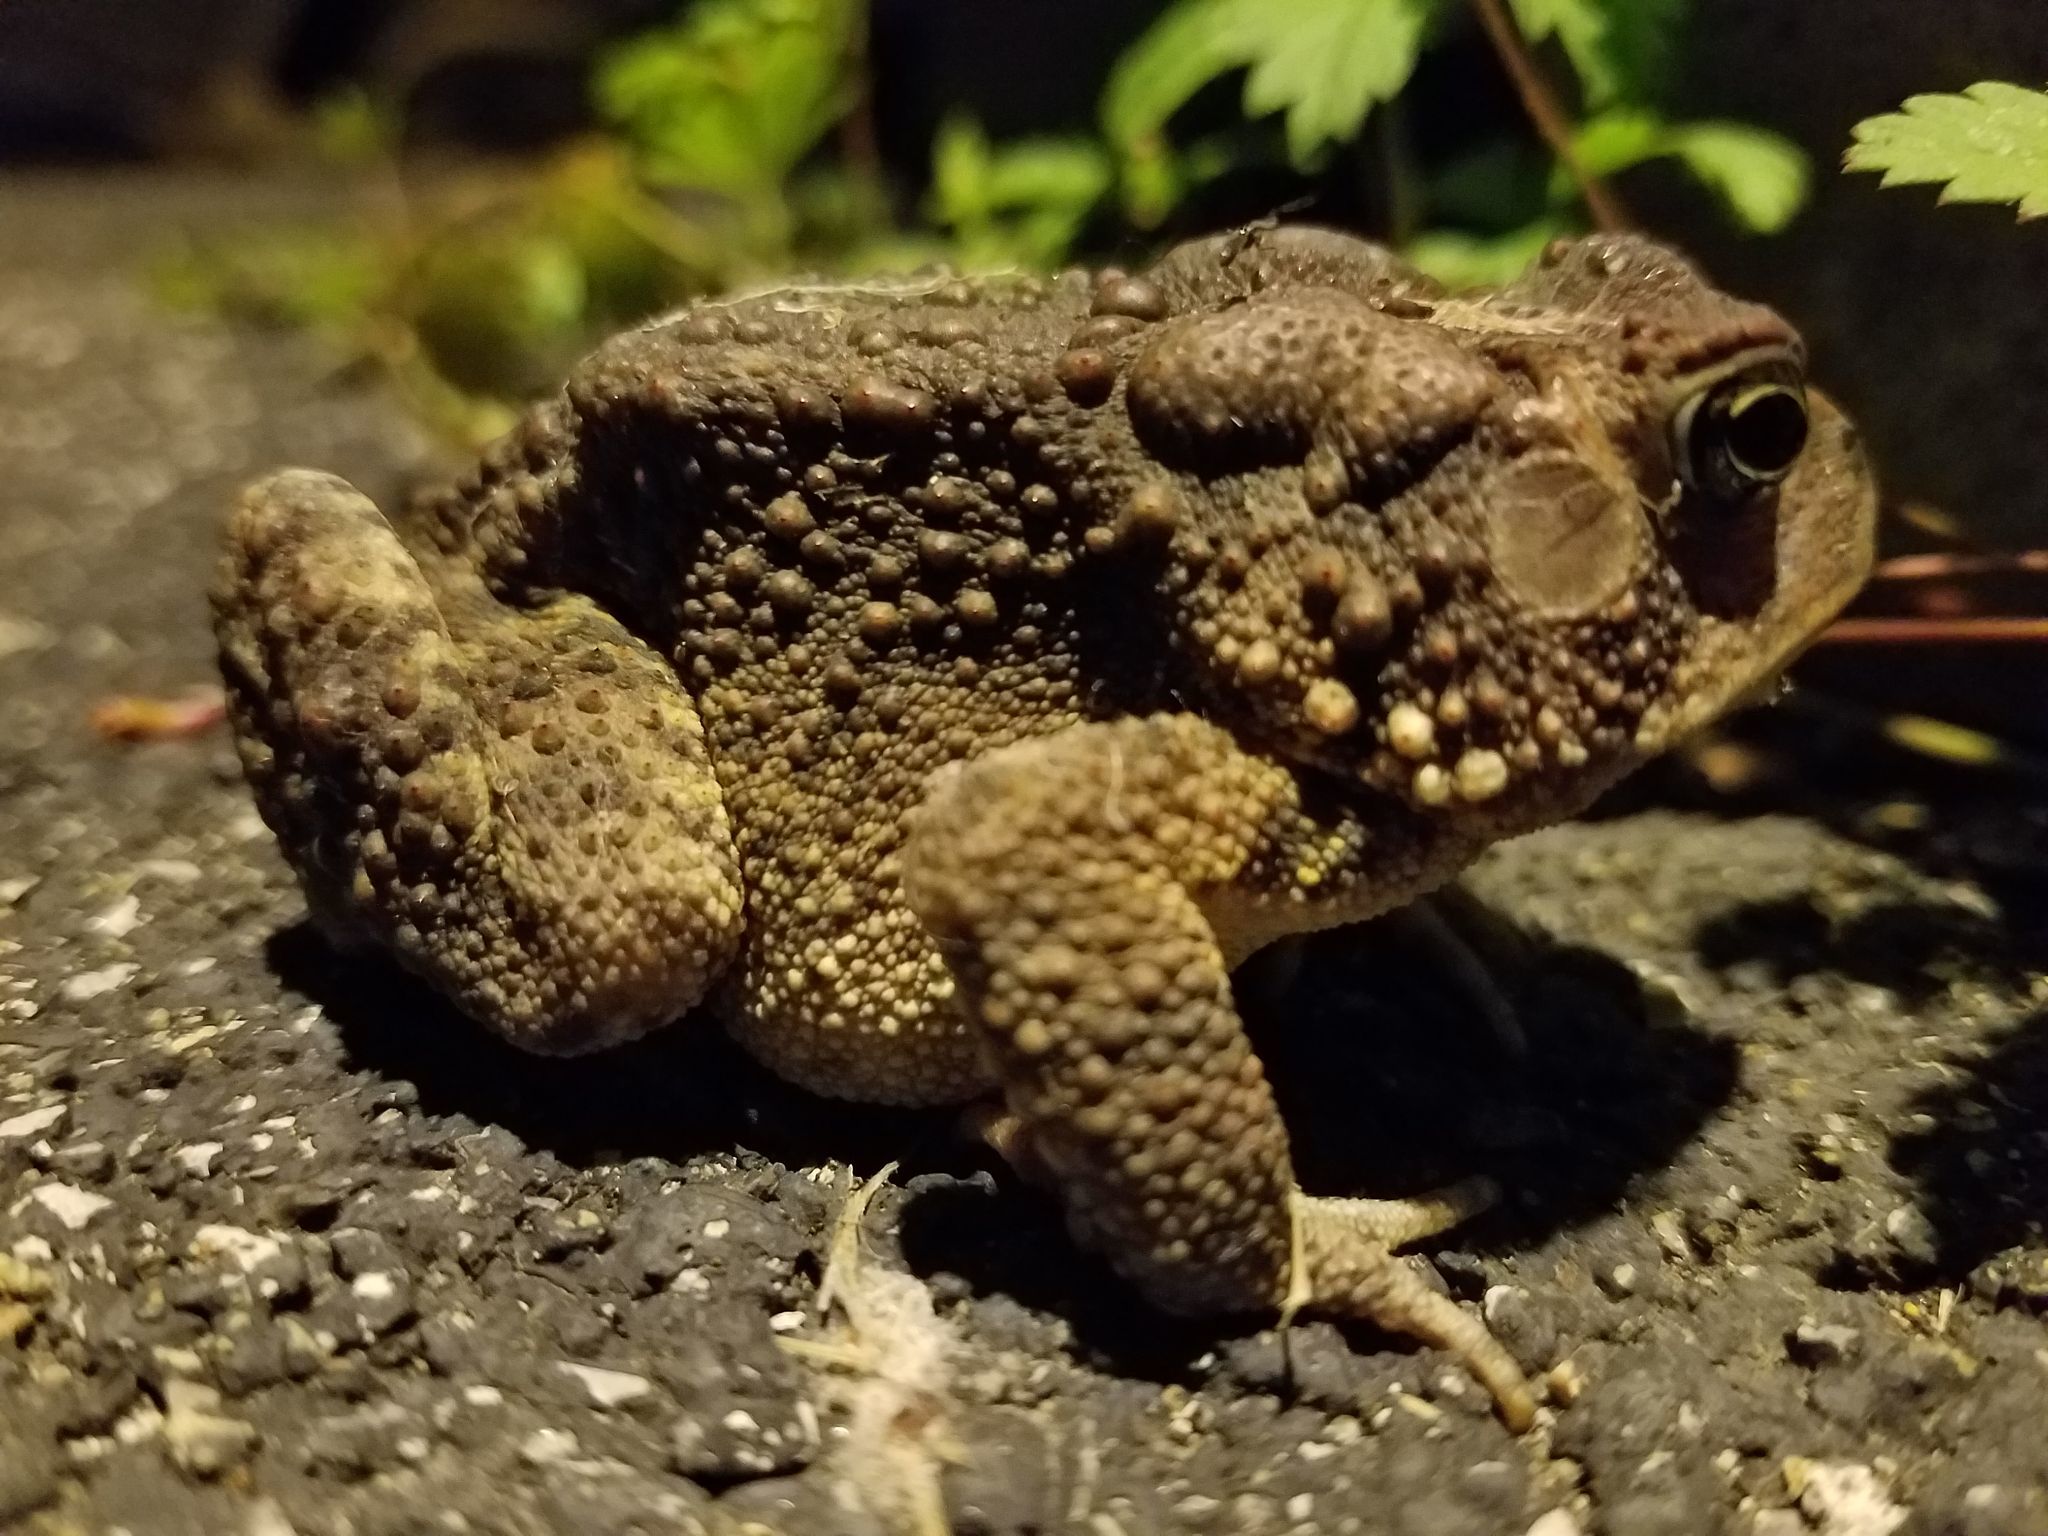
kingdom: Animalia
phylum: Chordata
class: Amphibia
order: Anura
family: Bufonidae
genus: Anaxyrus
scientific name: Anaxyrus americanus
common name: American toad
